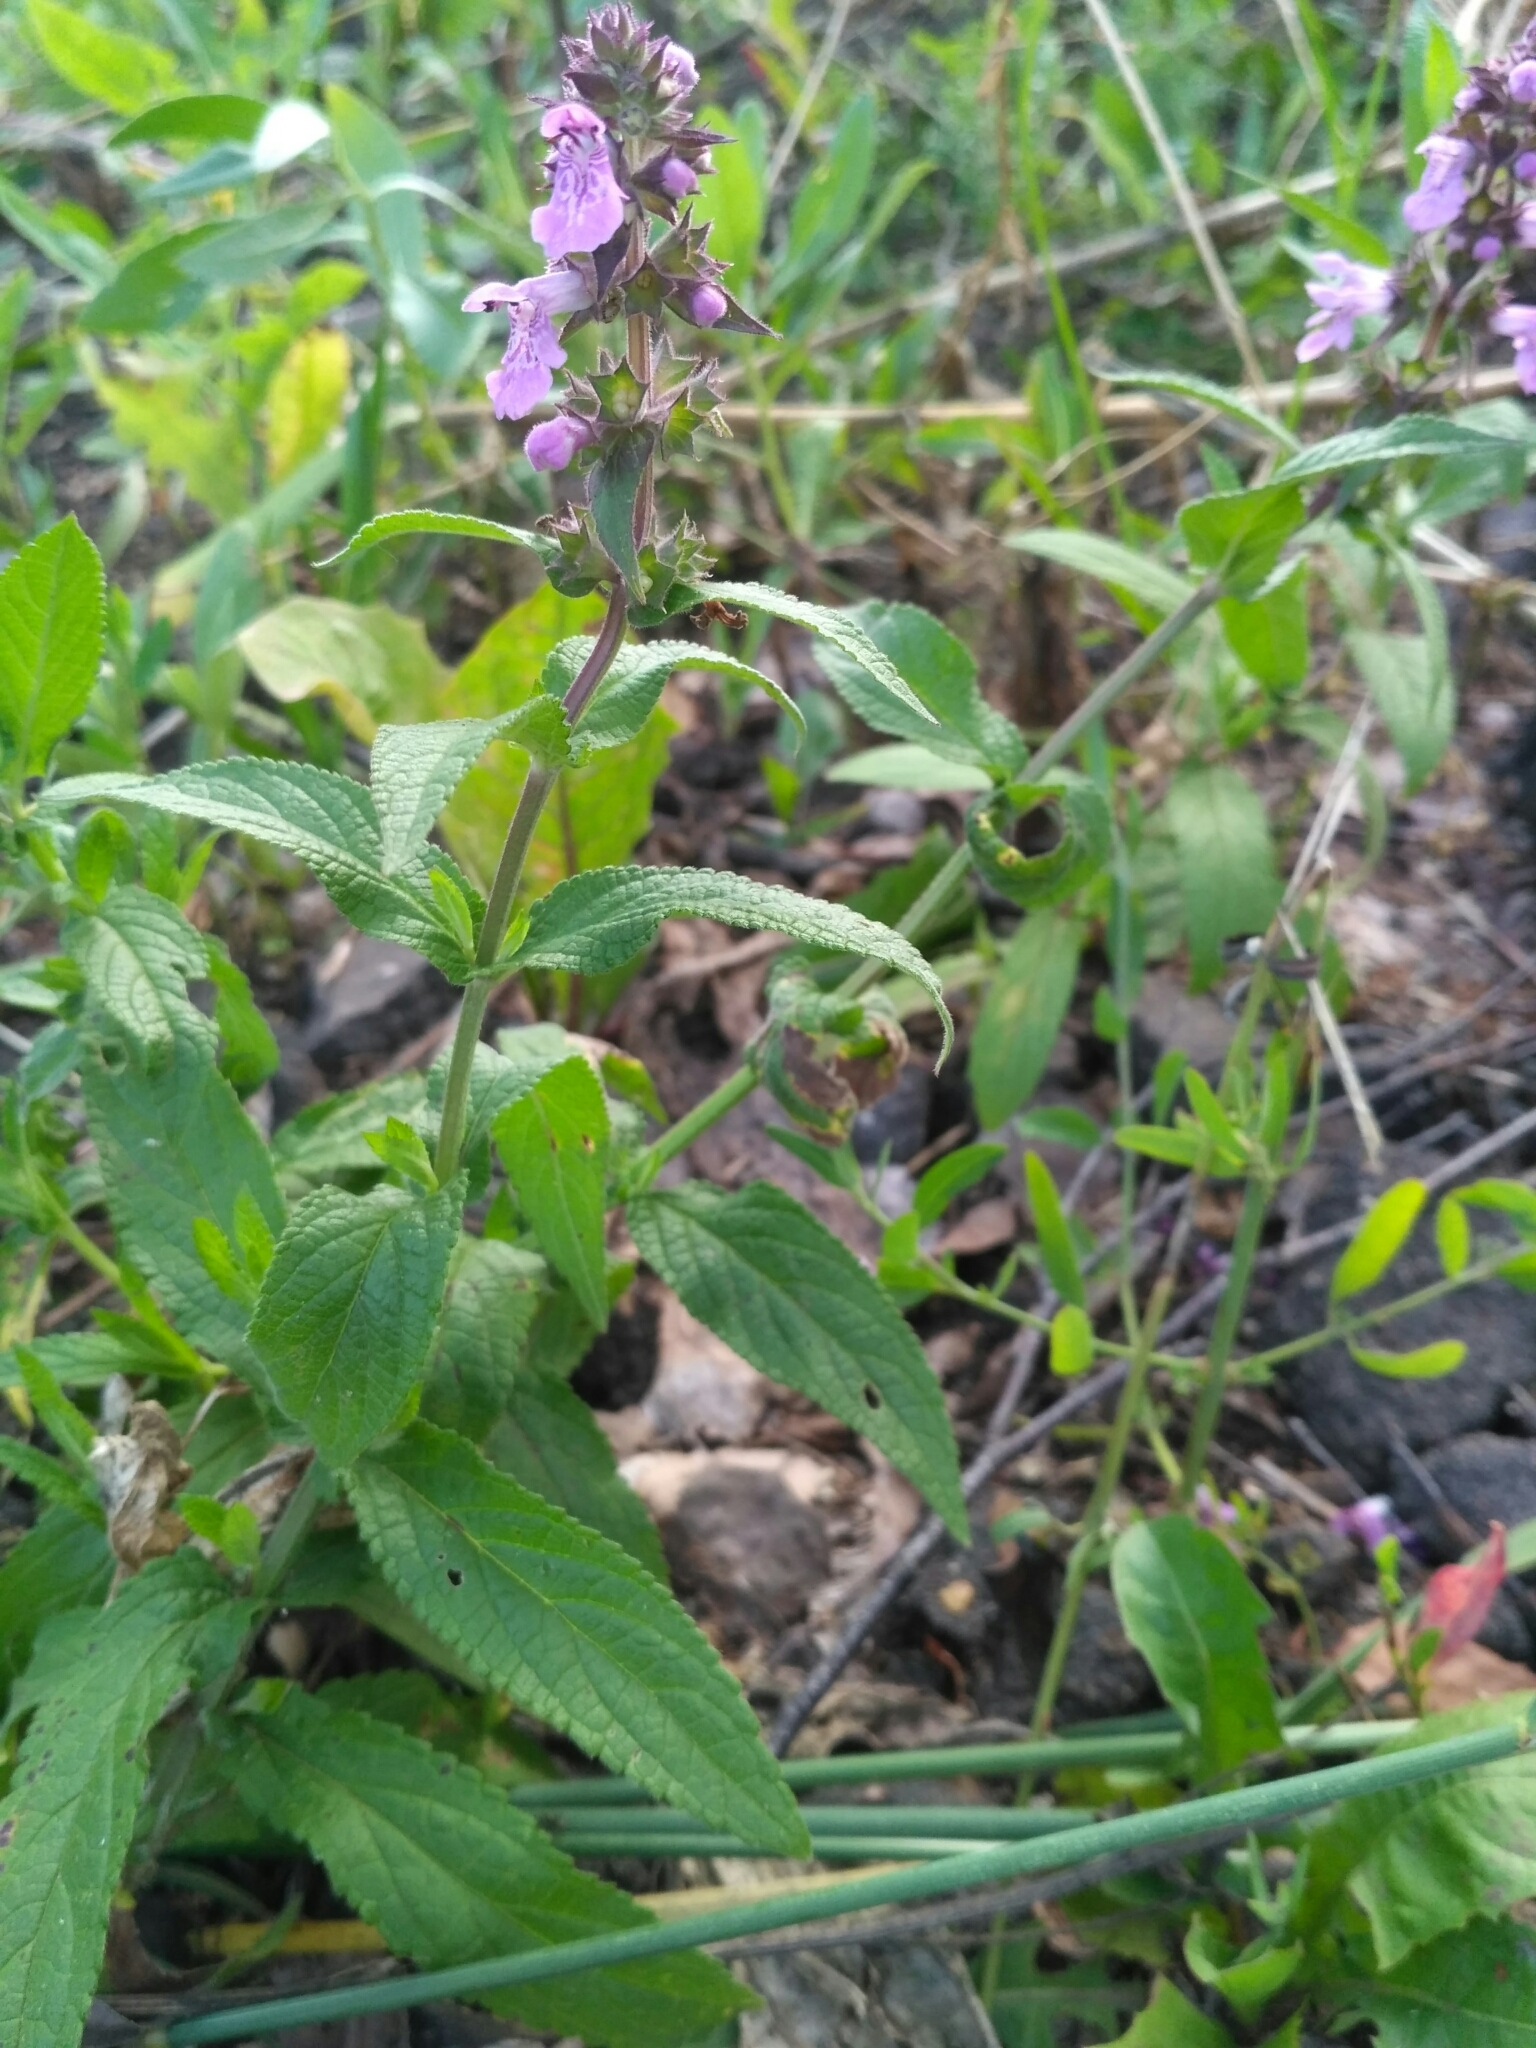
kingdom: Plantae
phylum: Tracheophyta
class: Magnoliopsida
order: Lamiales
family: Lamiaceae
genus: Stachys
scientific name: Stachys palustris
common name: Marsh woundwort
